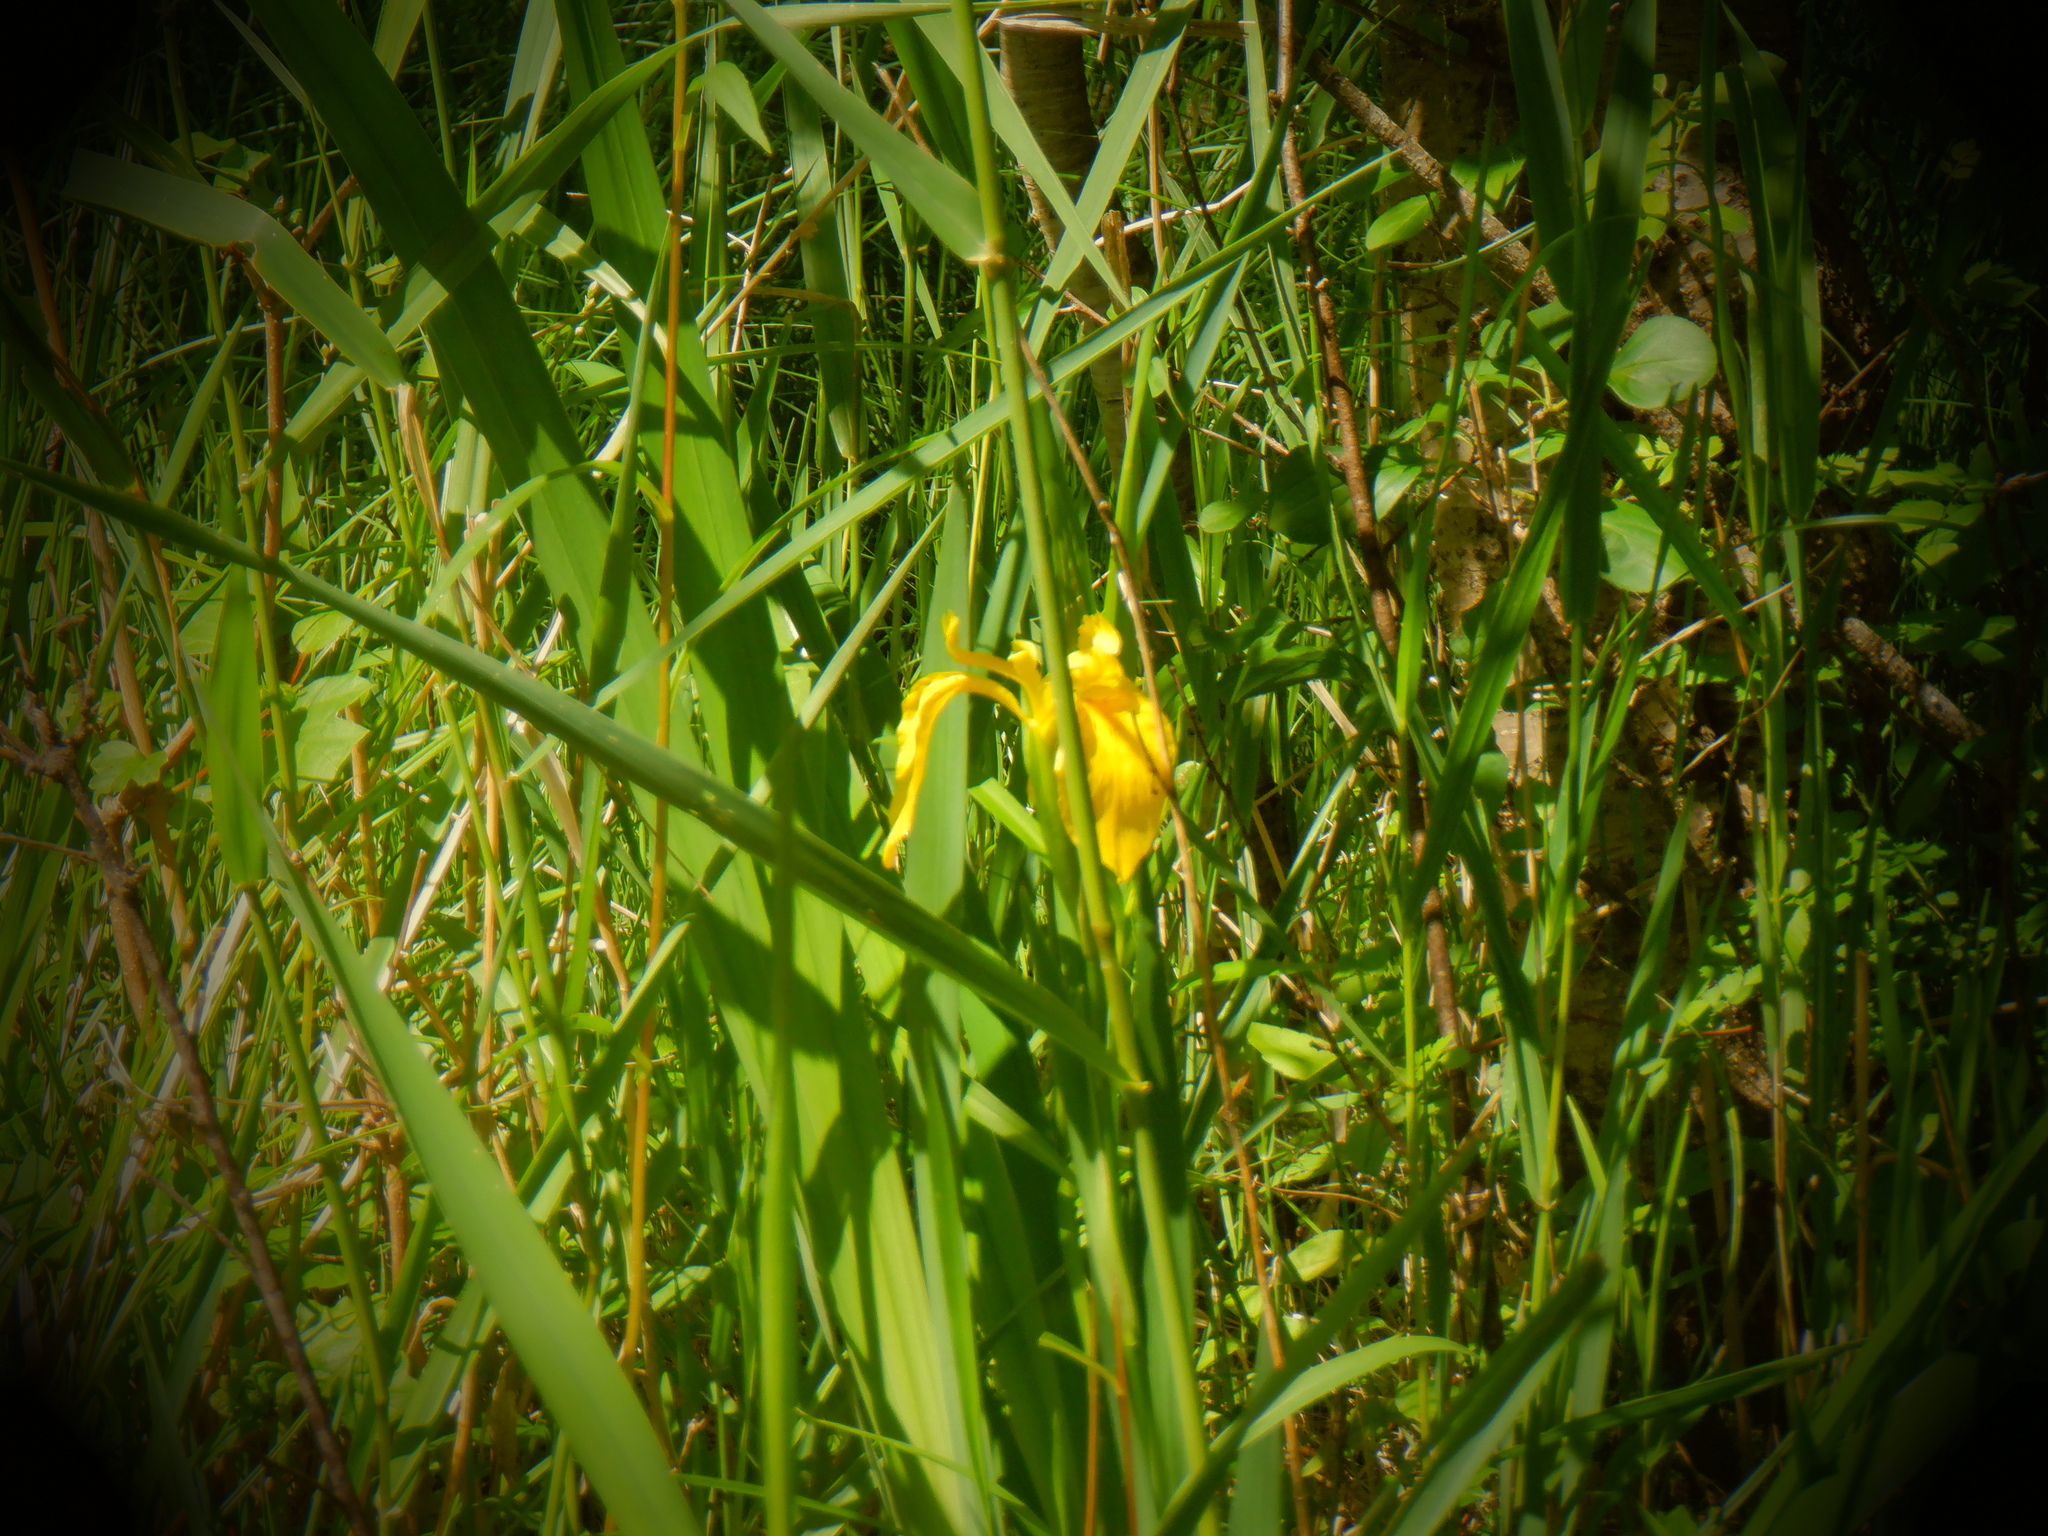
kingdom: Plantae
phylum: Tracheophyta
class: Liliopsida
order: Asparagales
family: Iridaceae
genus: Iris
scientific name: Iris pseudacorus
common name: Yellow flag
